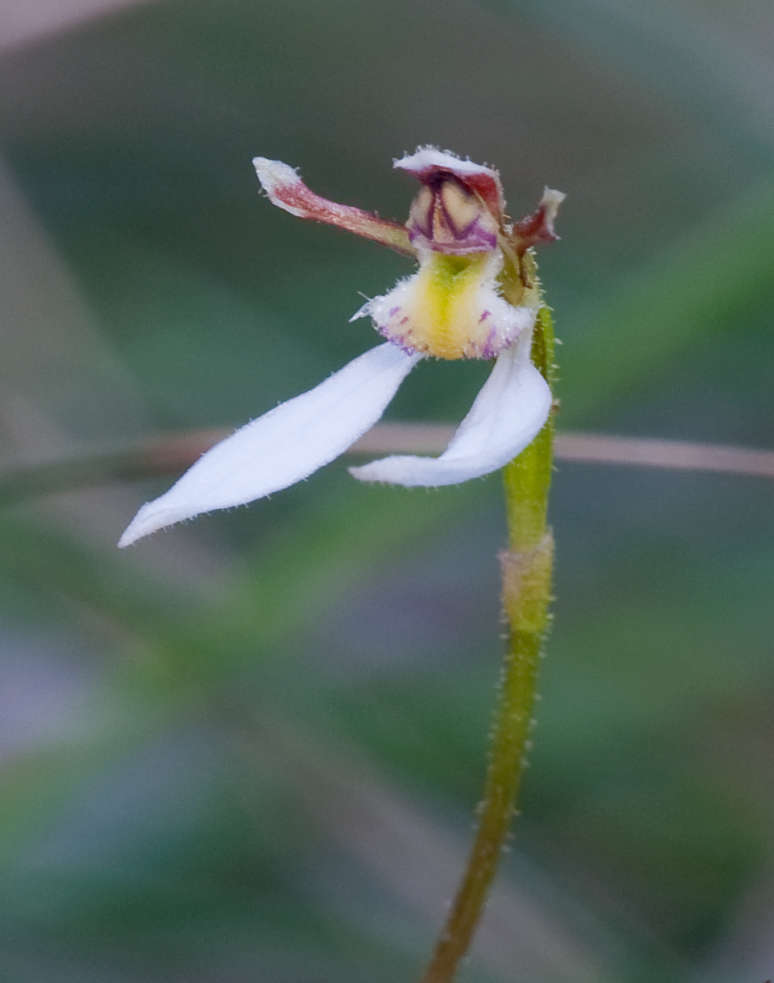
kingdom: Plantae
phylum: Tracheophyta
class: Liliopsida
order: Asparagales
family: Orchidaceae
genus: Eriochilus
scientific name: Eriochilus cucullatus
